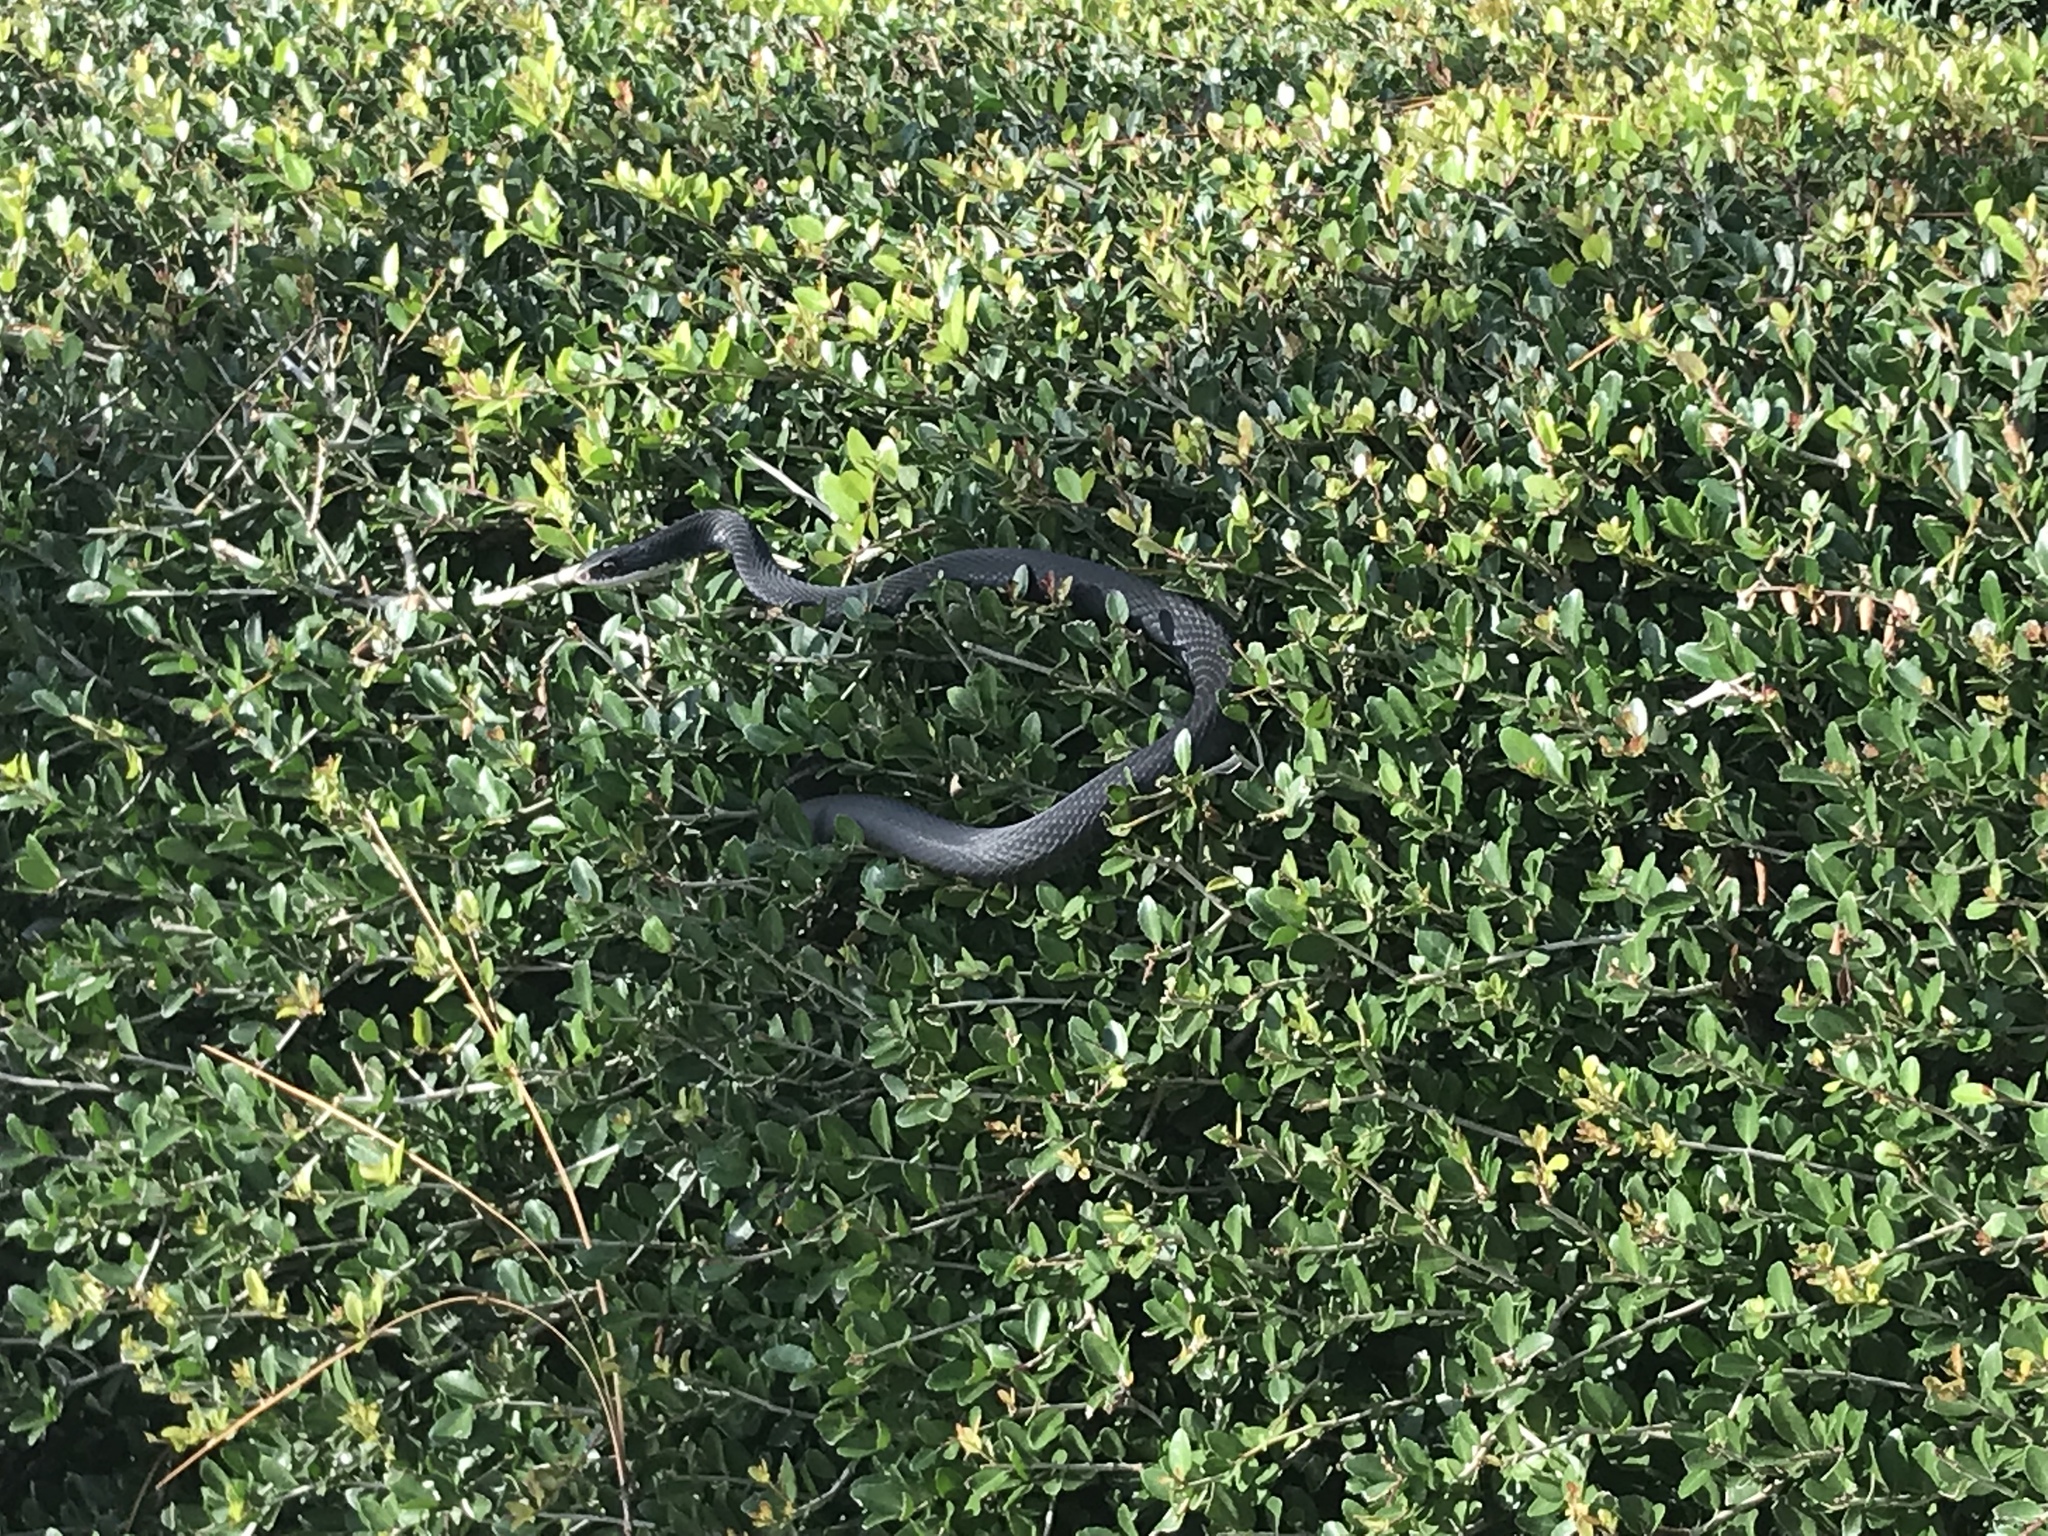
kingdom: Animalia
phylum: Chordata
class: Squamata
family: Colubridae
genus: Coluber
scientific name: Coluber constrictor
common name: Eastern racer
